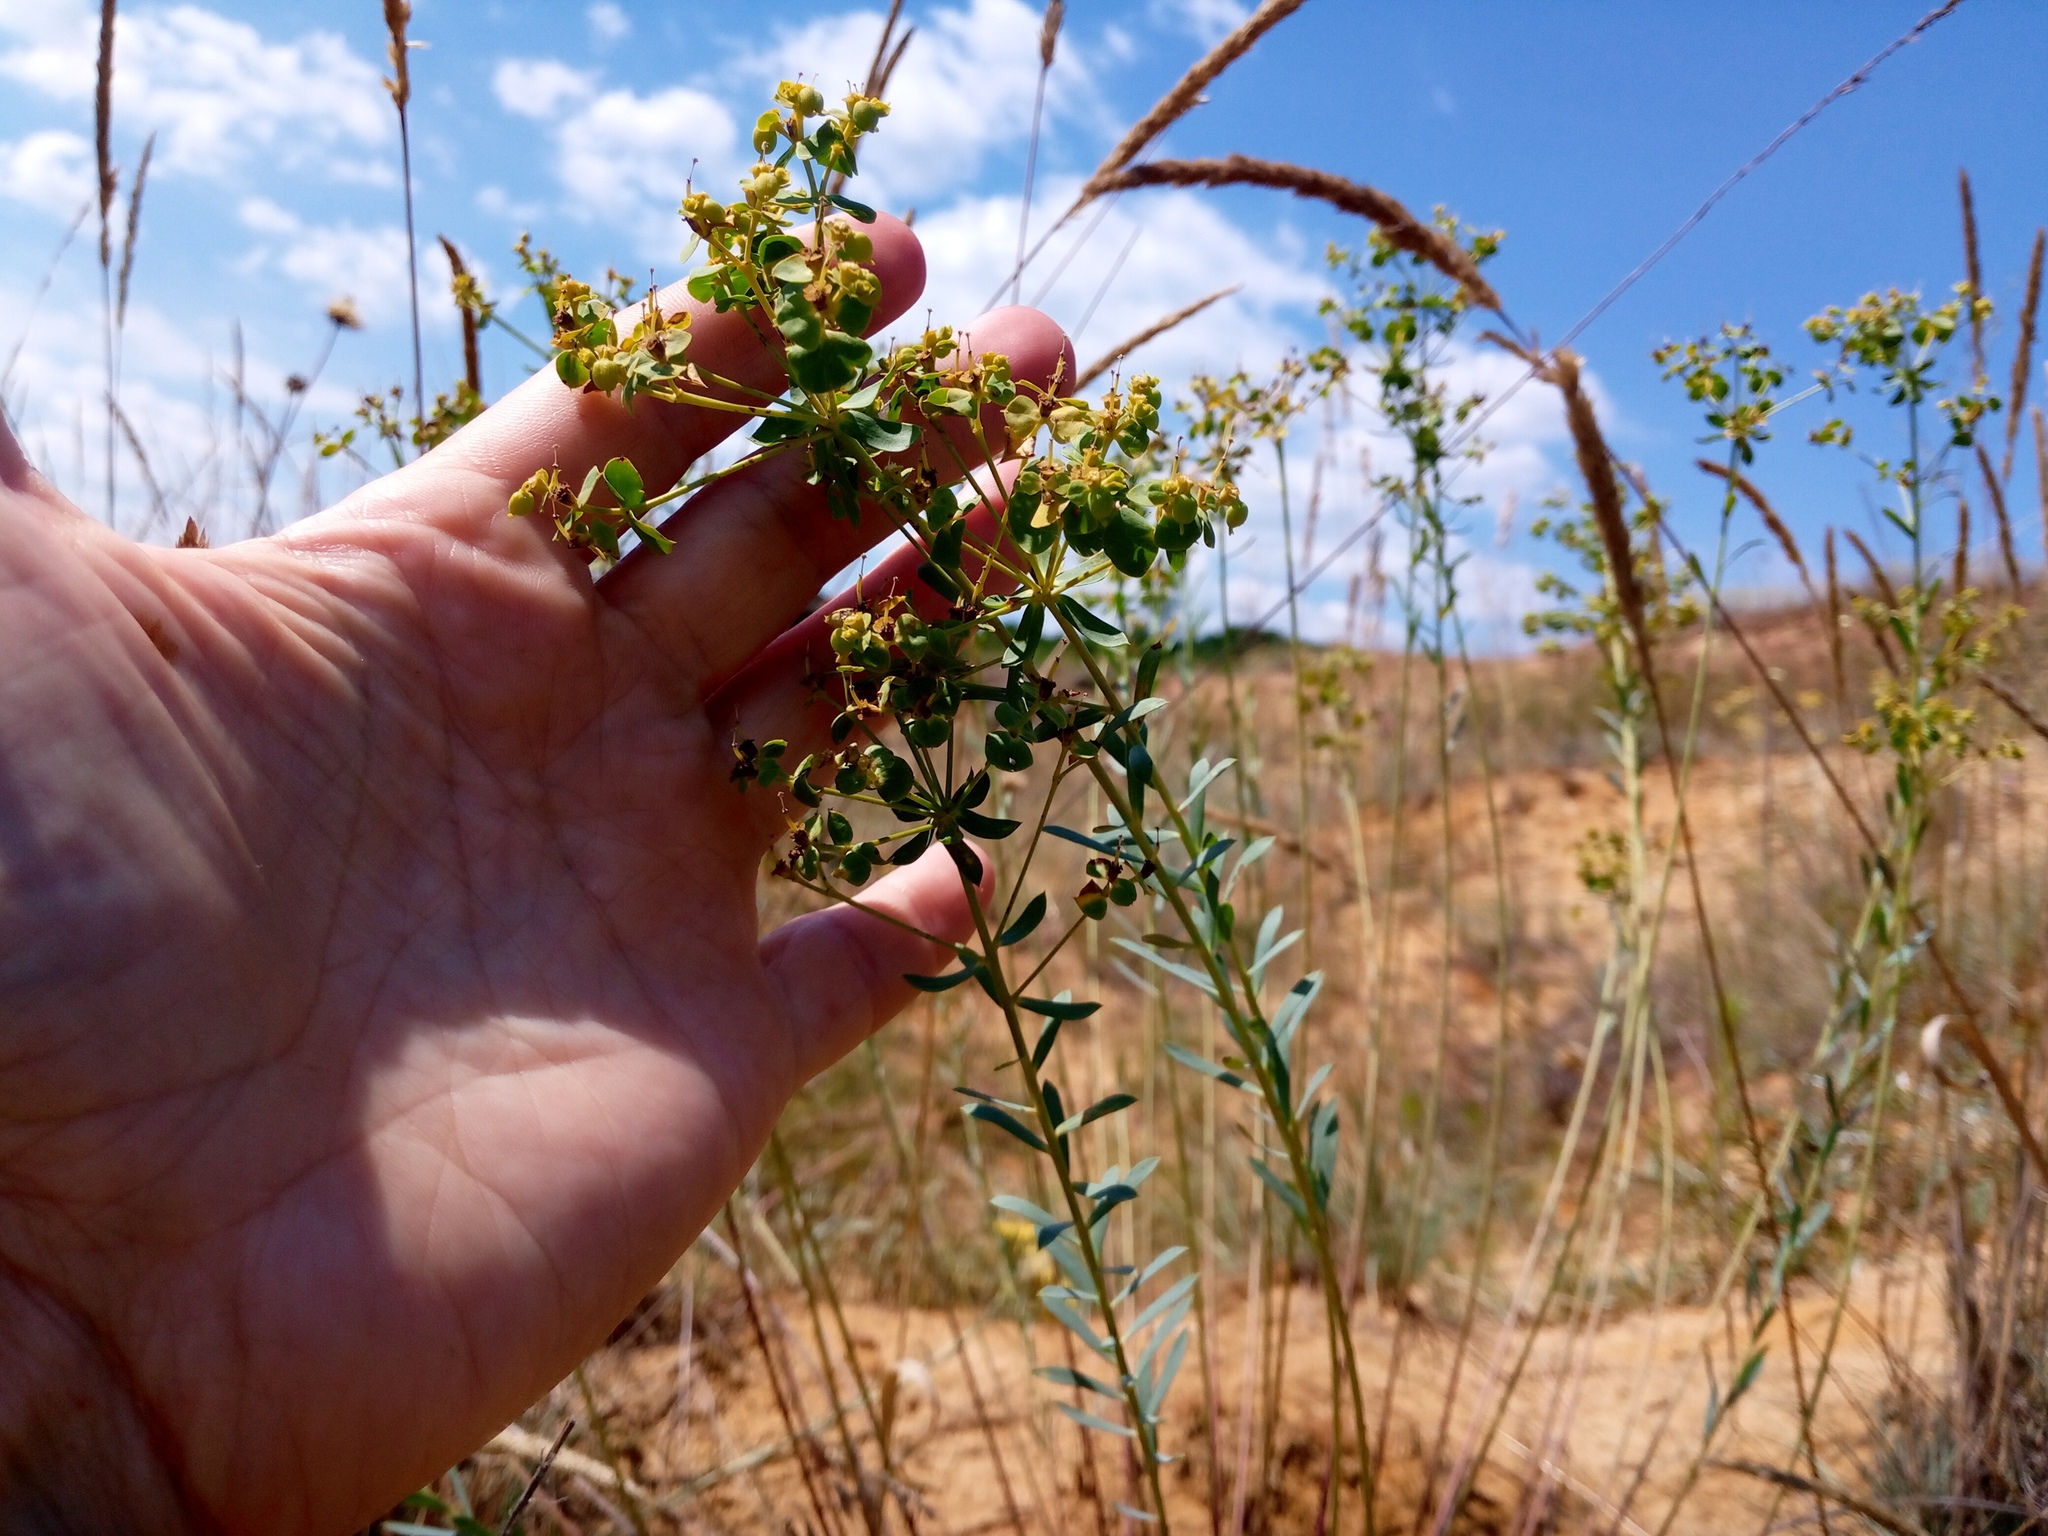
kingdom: Plantae
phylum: Tracheophyta
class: Magnoliopsida
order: Malpighiales
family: Euphorbiaceae
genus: Euphorbia
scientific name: Euphorbia seguieriana
